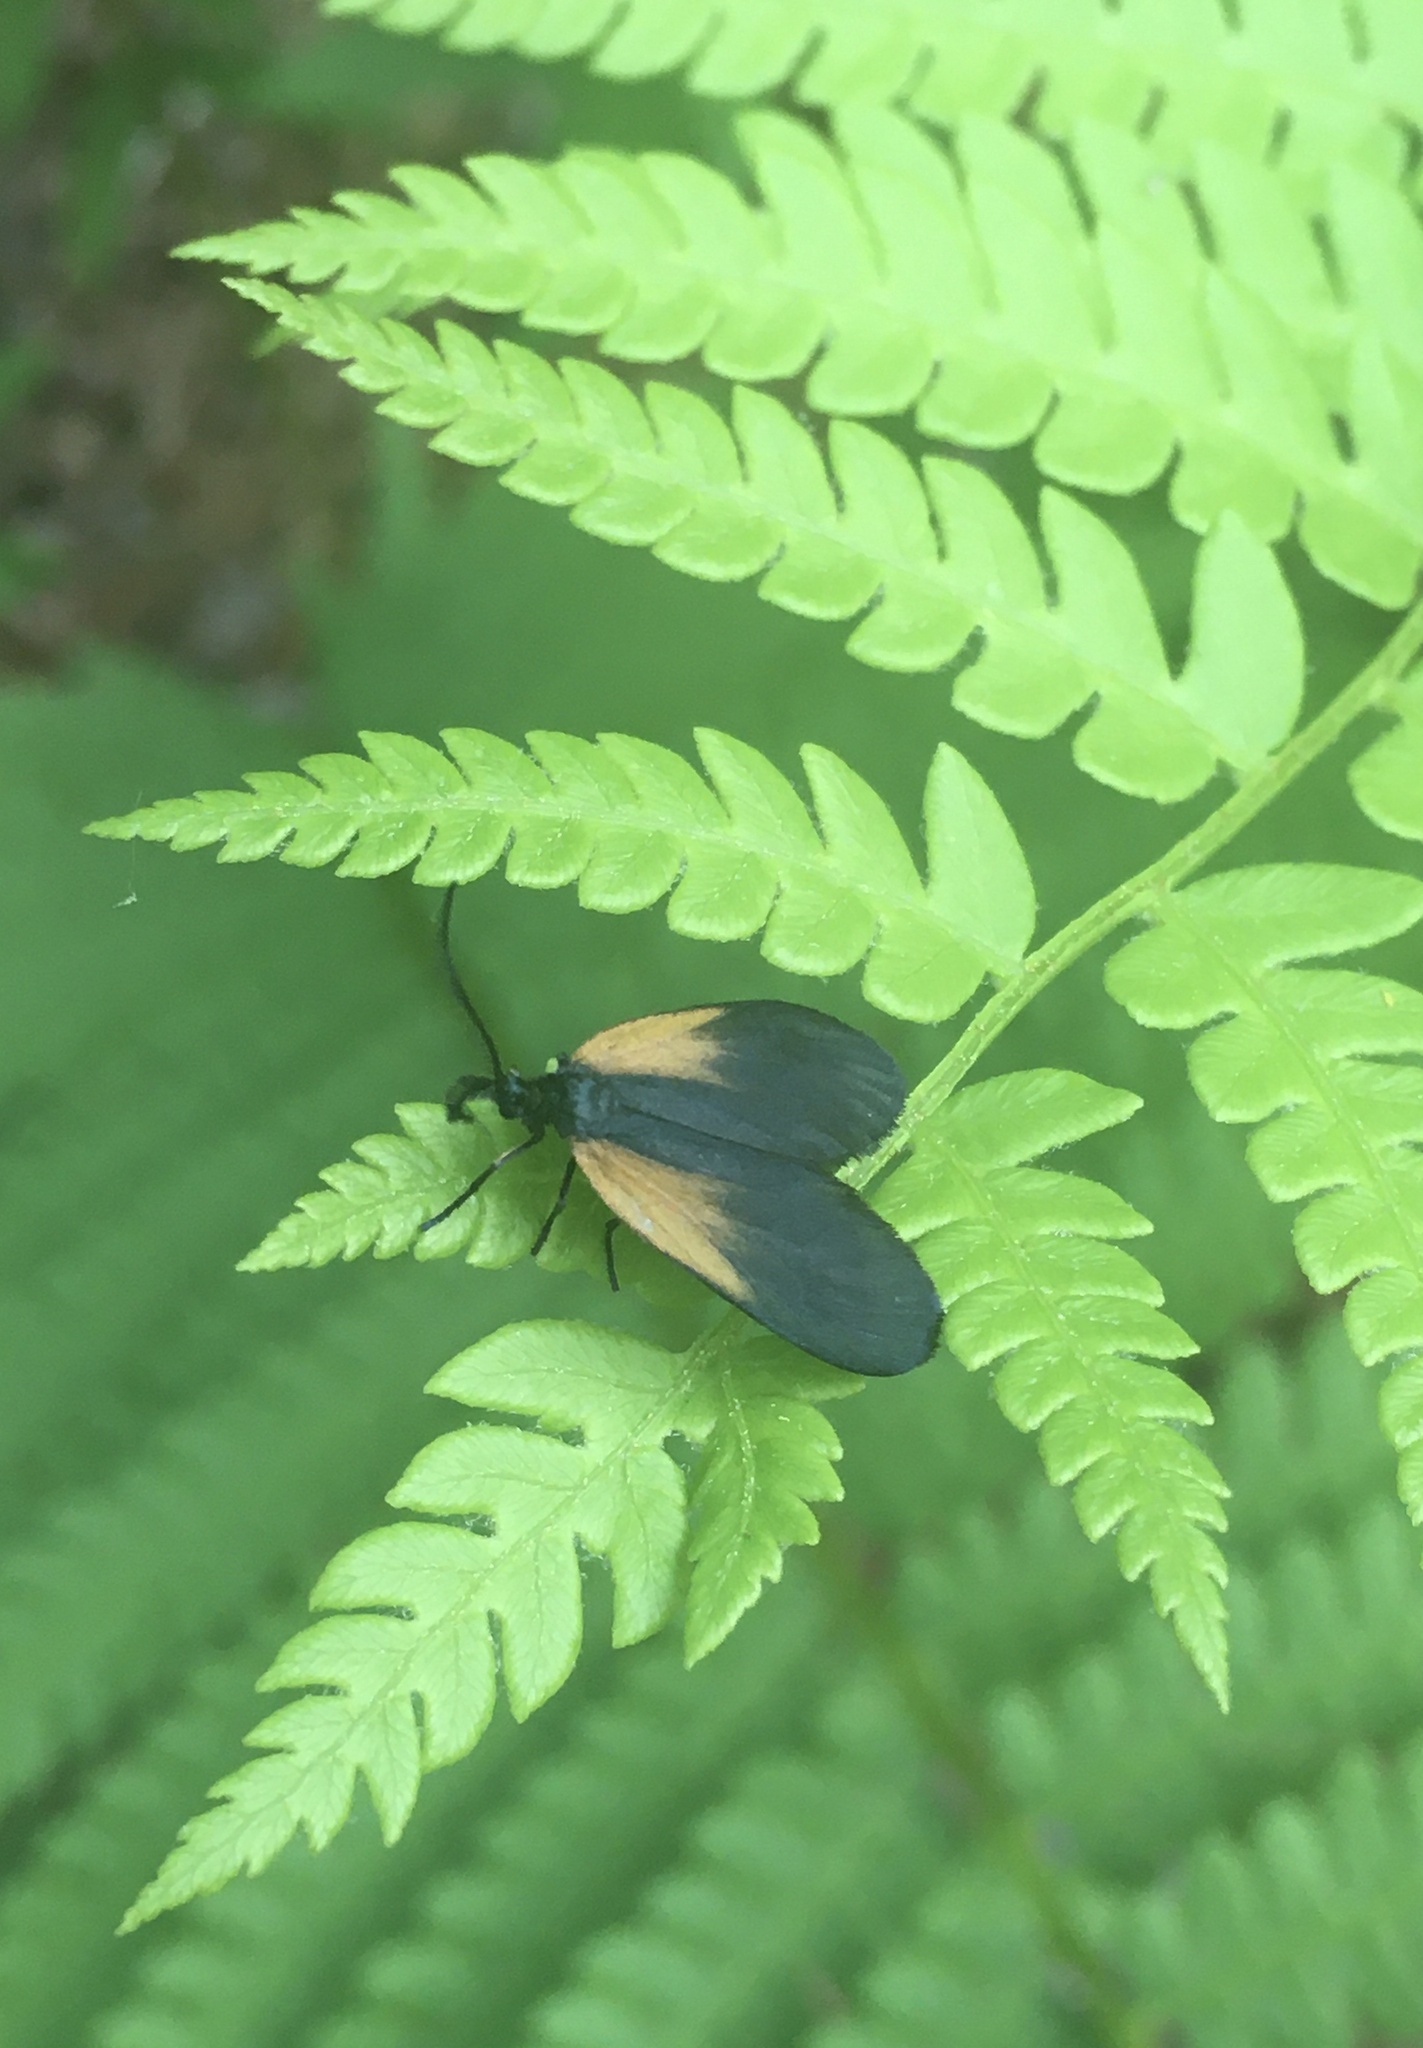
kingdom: Animalia
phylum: Arthropoda
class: Insecta
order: Lepidoptera
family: Zygaenidae
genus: Malthaca
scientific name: Malthaca dimidiata
